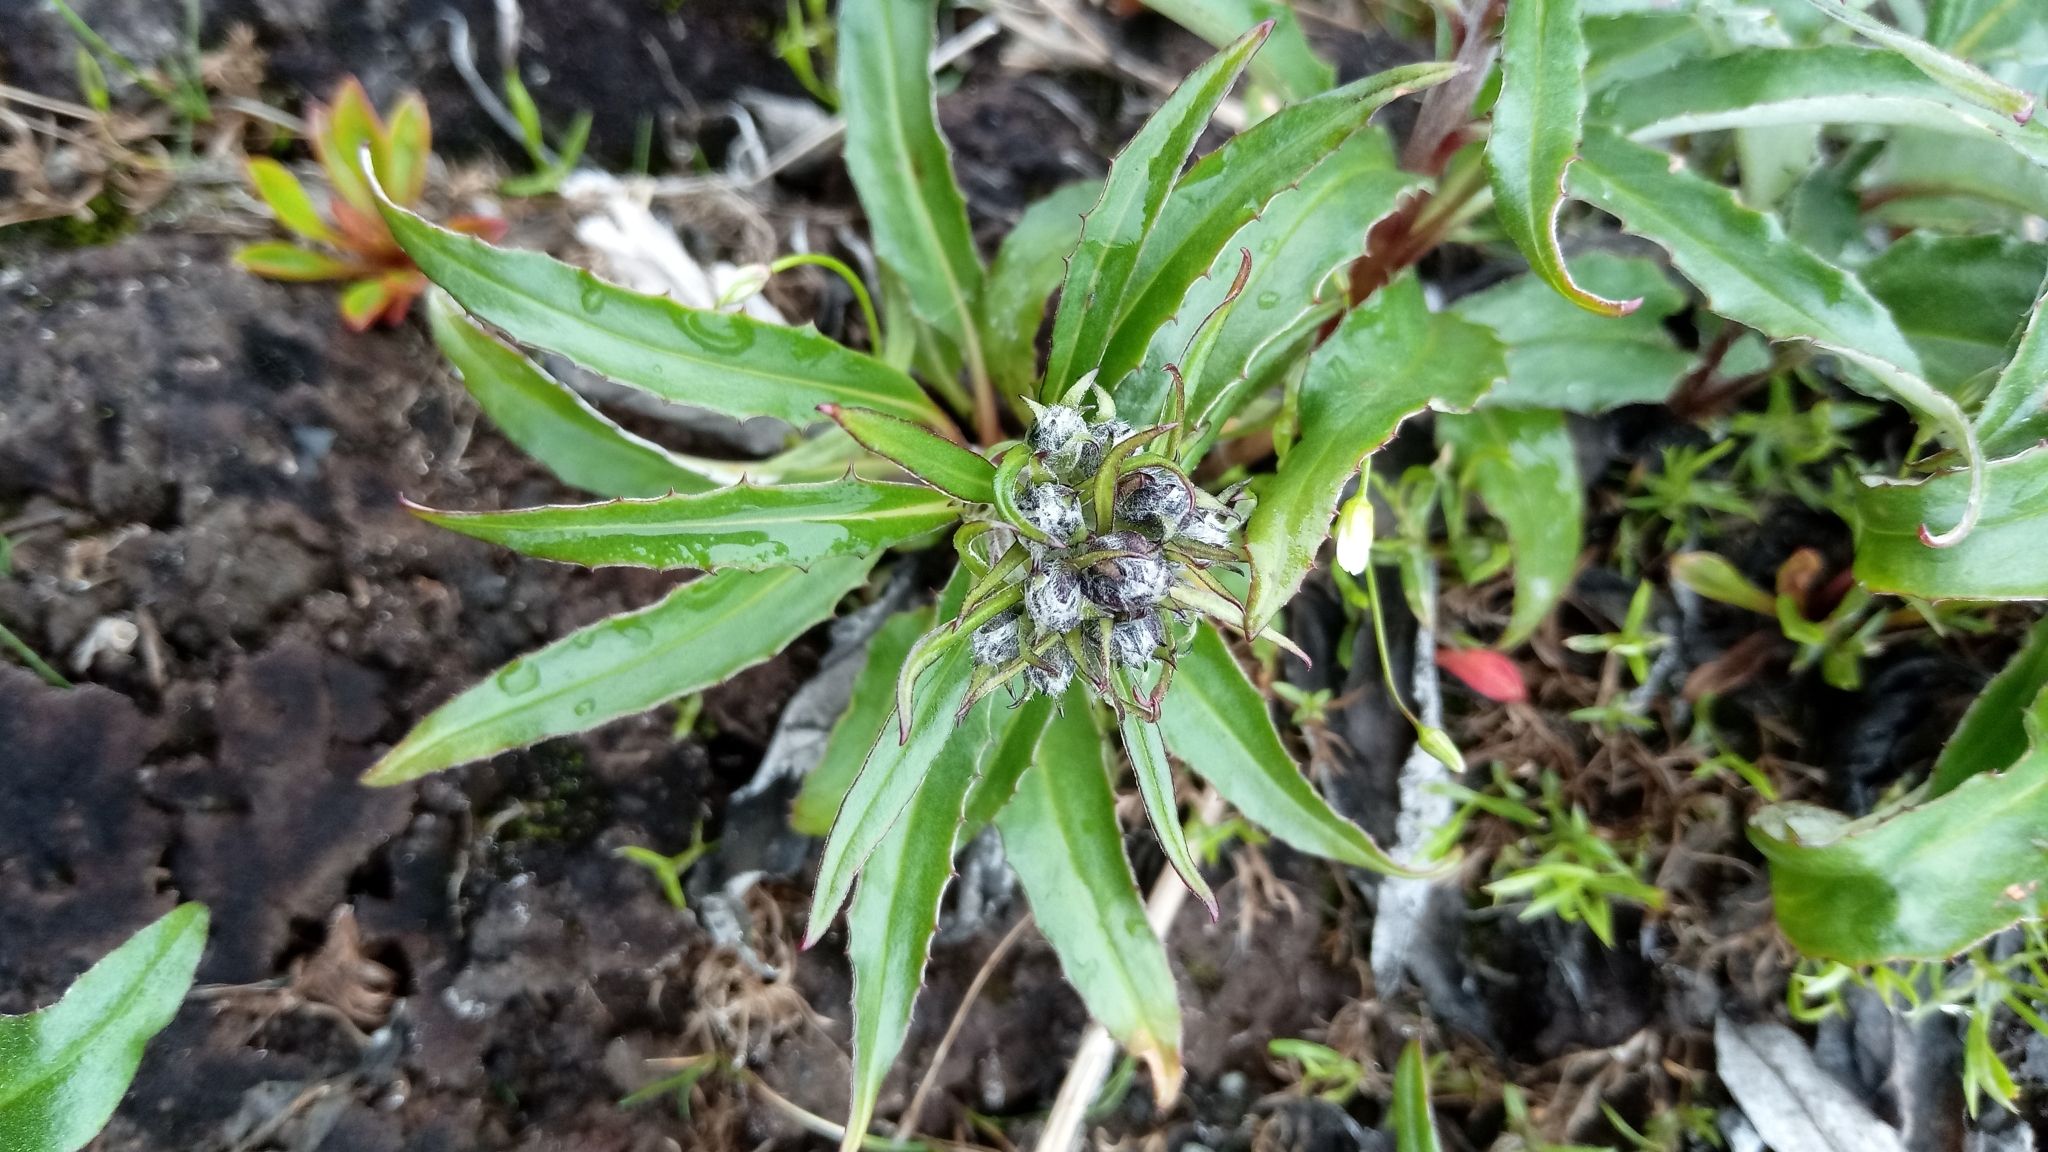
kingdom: Plantae
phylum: Tracheophyta
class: Magnoliopsida
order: Asterales
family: Asteraceae
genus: Saussurea
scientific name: Saussurea tilesii
